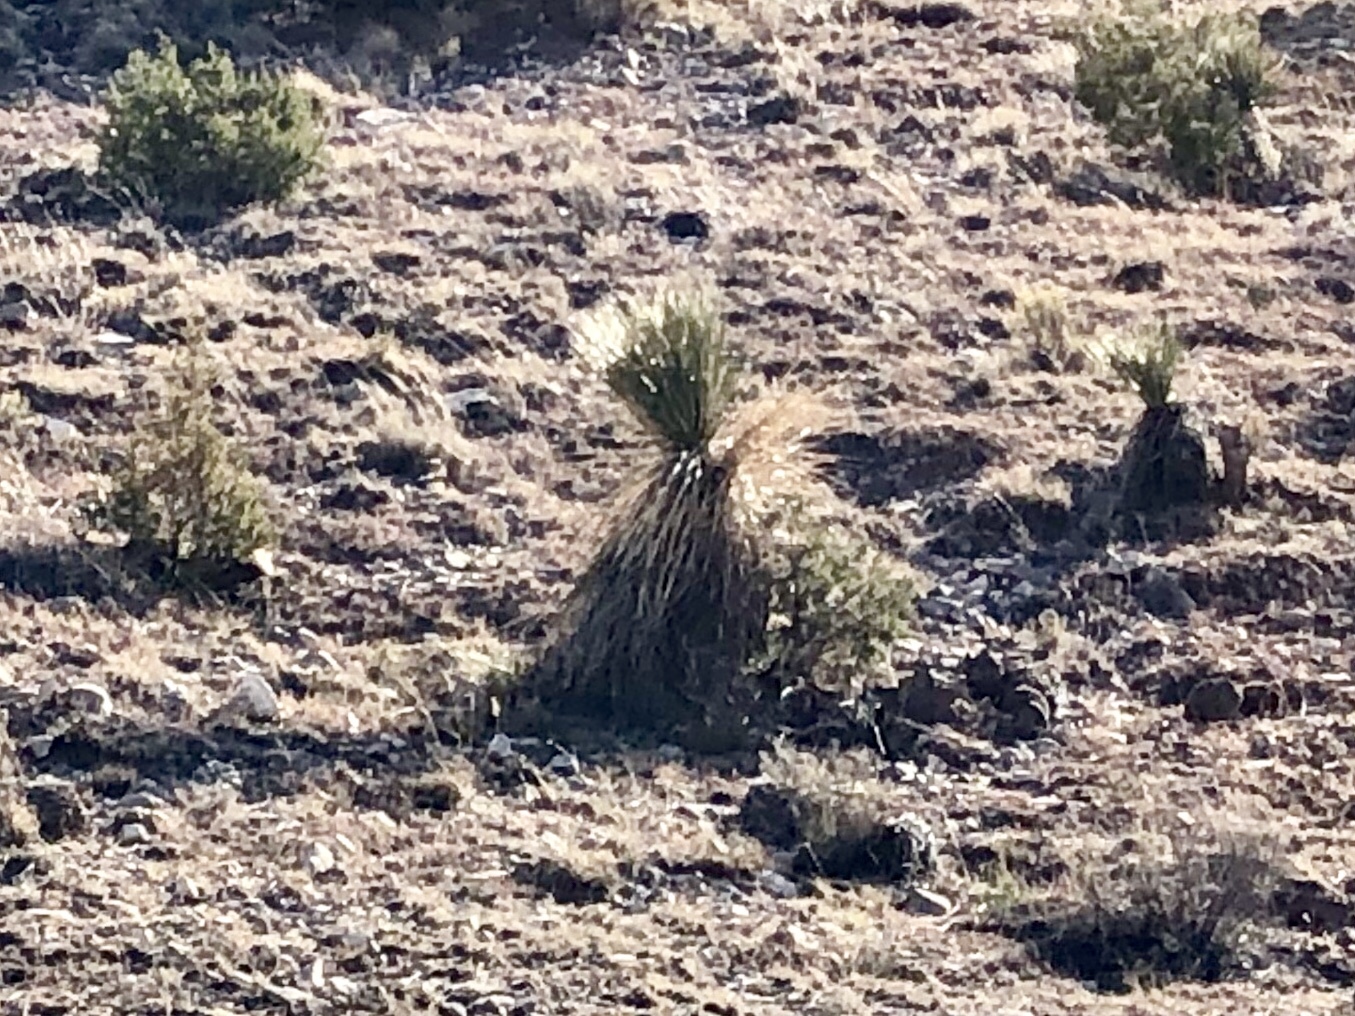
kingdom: Plantae
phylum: Tracheophyta
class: Liliopsida
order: Asparagales
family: Asparagaceae
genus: Yucca
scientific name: Yucca elata
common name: Palmella
